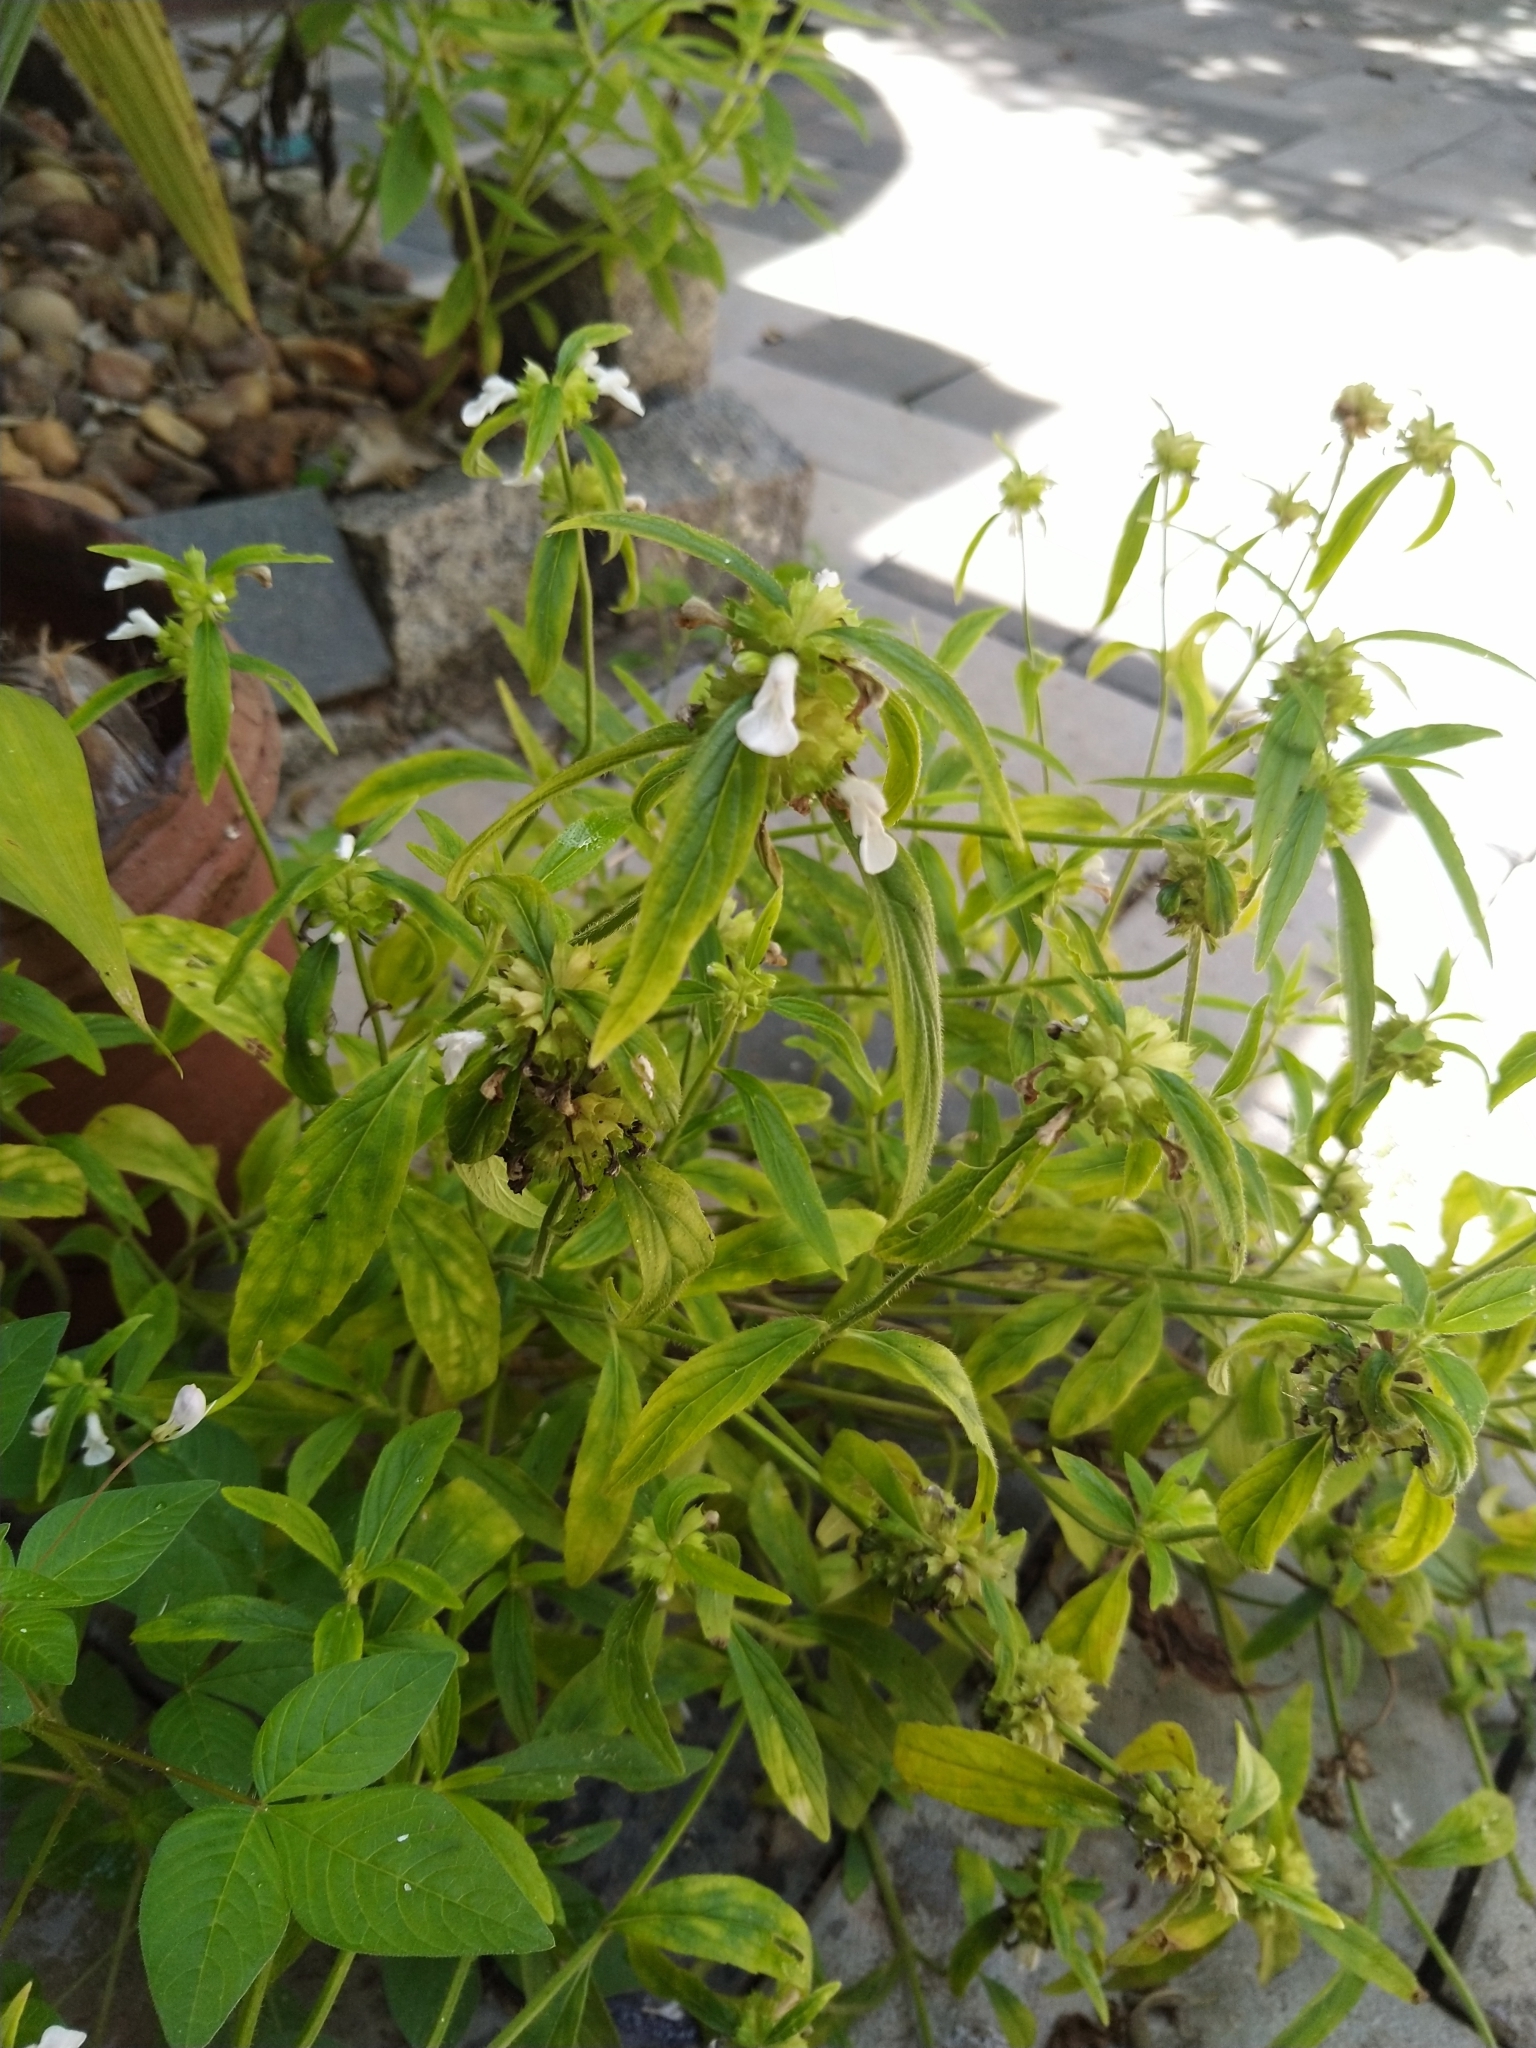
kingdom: Plantae
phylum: Tracheophyta
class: Magnoliopsida
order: Lamiales
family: Lamiaceae
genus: Leucas
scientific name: Leucas aspera
